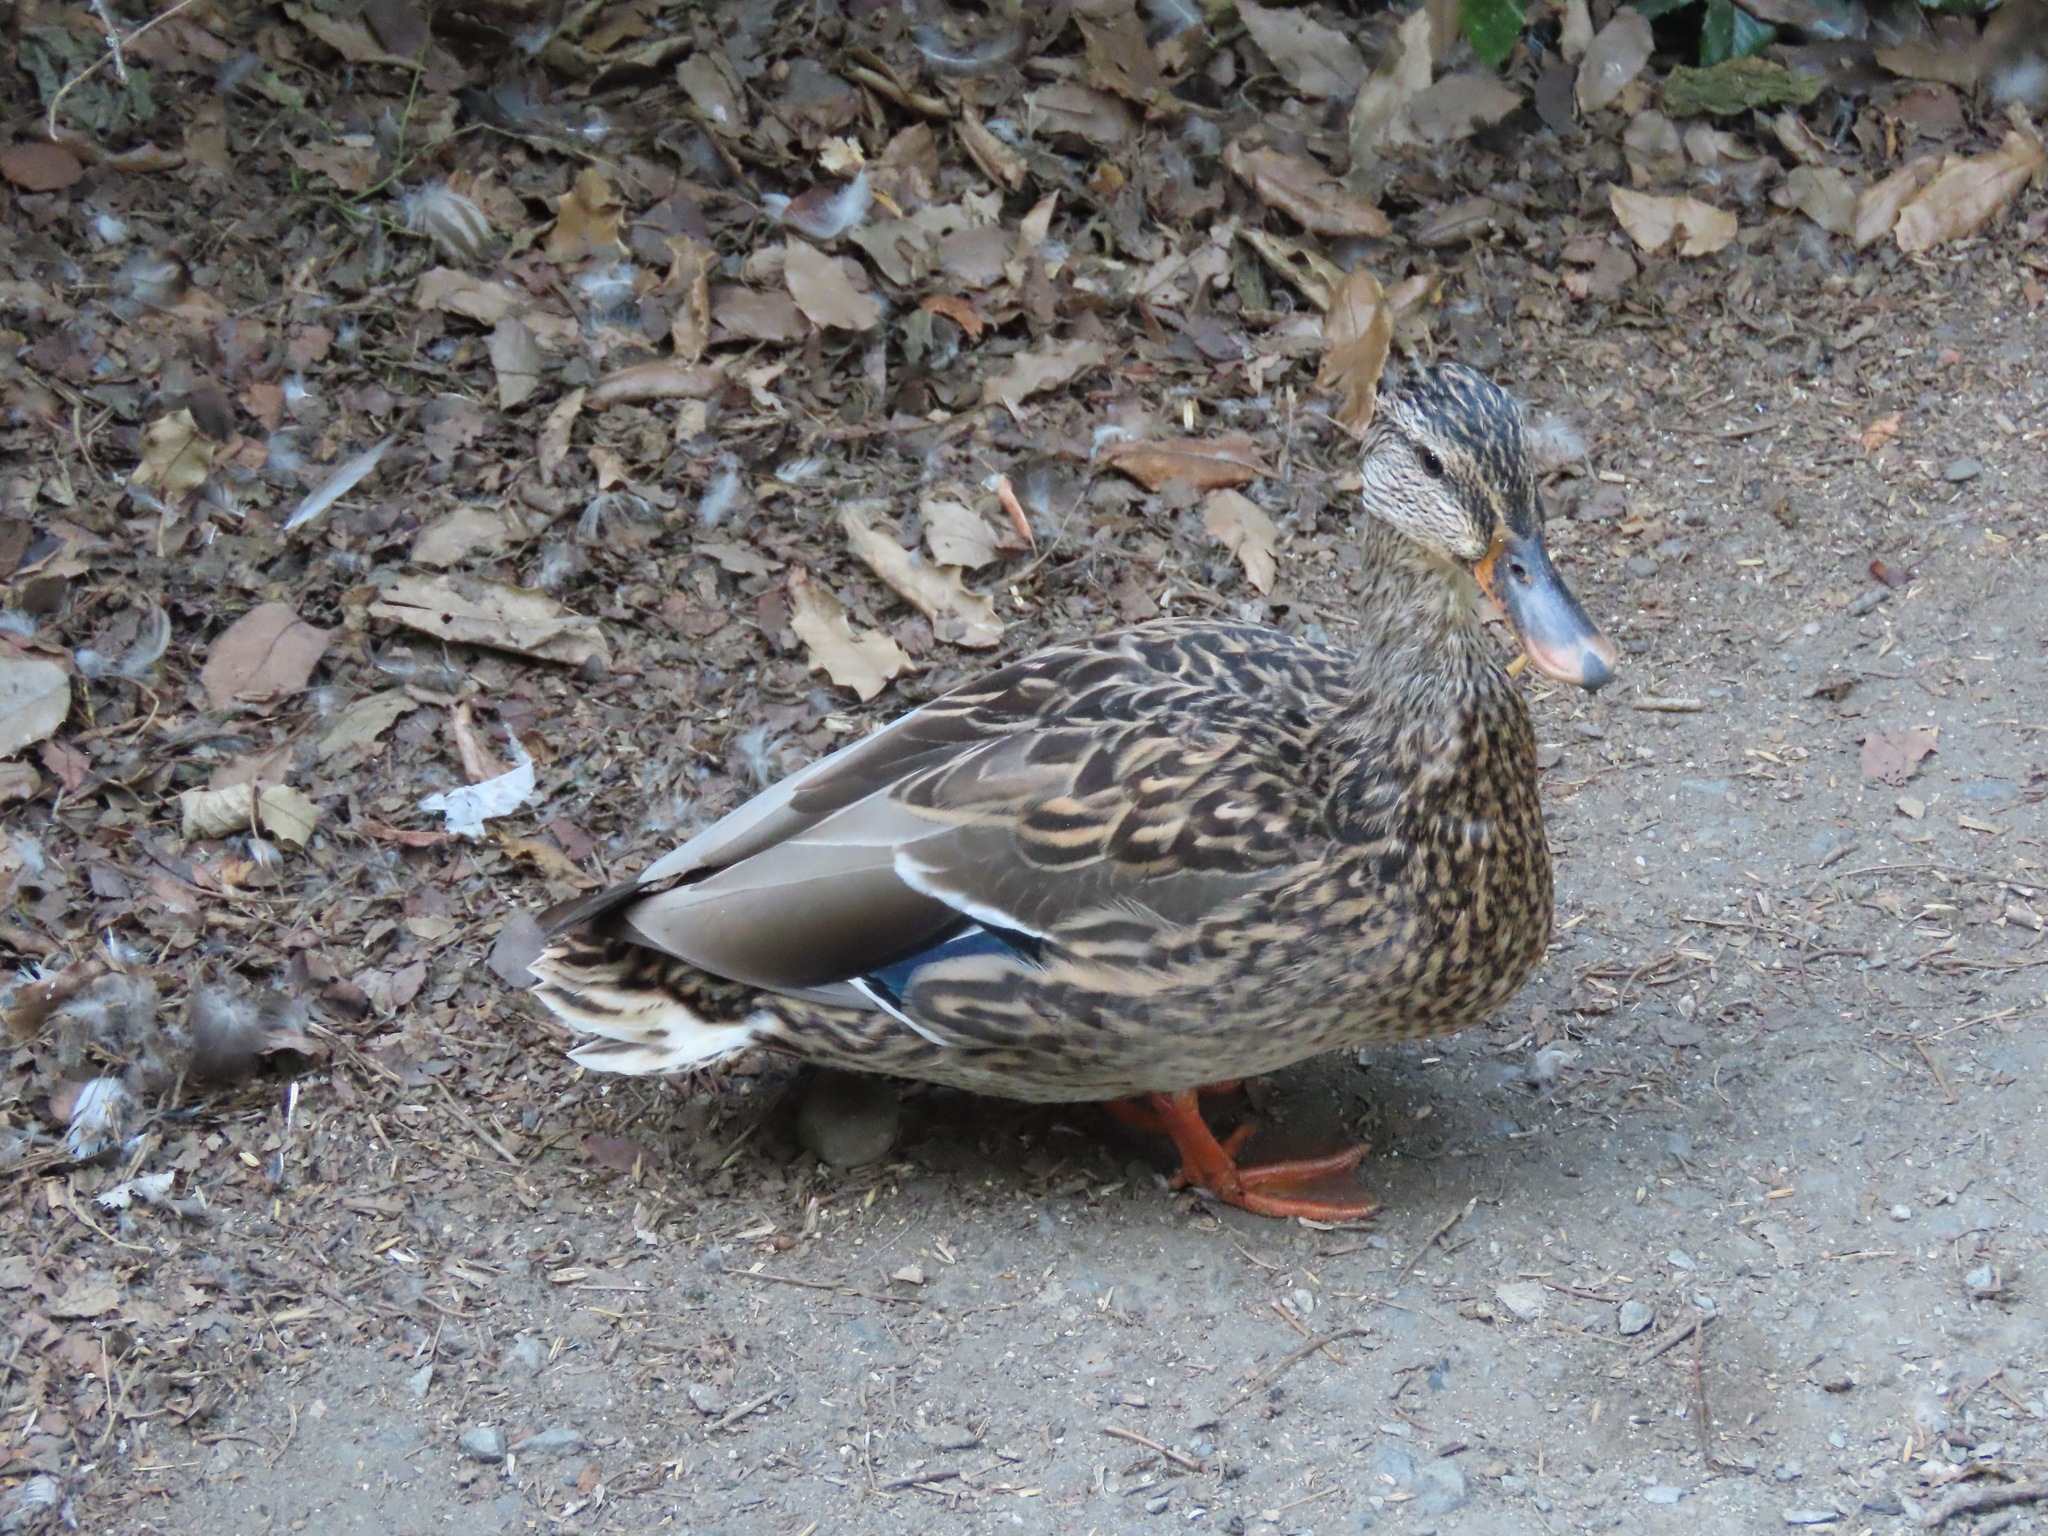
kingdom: Animalia
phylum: Chordata
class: Aves
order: Anseriformes
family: Anatidae
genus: Anas
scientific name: Anas platyrhynchos
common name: Mallard
